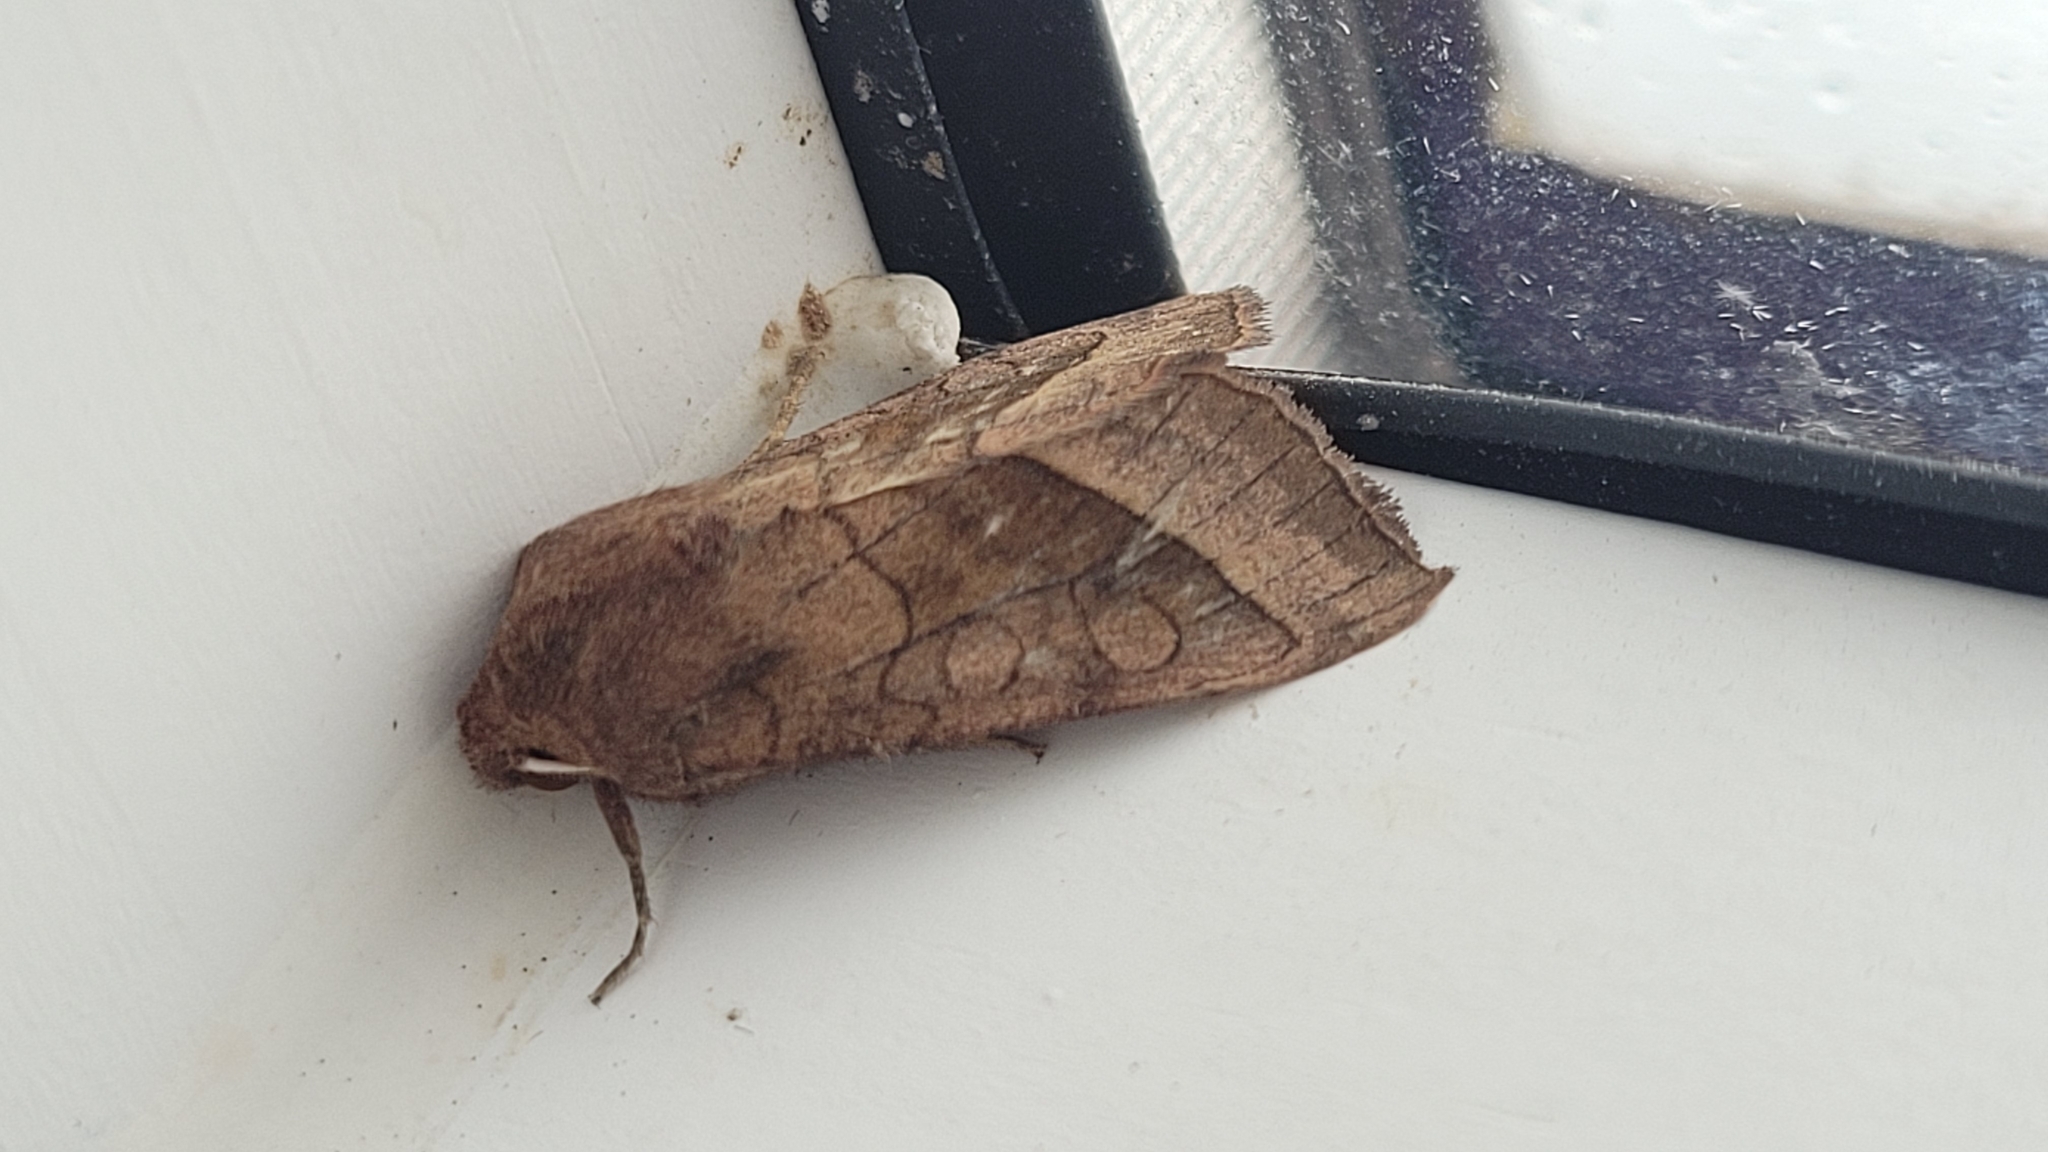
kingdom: Animalia
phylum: Arthropoda
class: Insecta
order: Lepidoptera
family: Noctuidae
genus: Hydraecia
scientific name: Hydraecia micacea
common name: Rosy rustic
